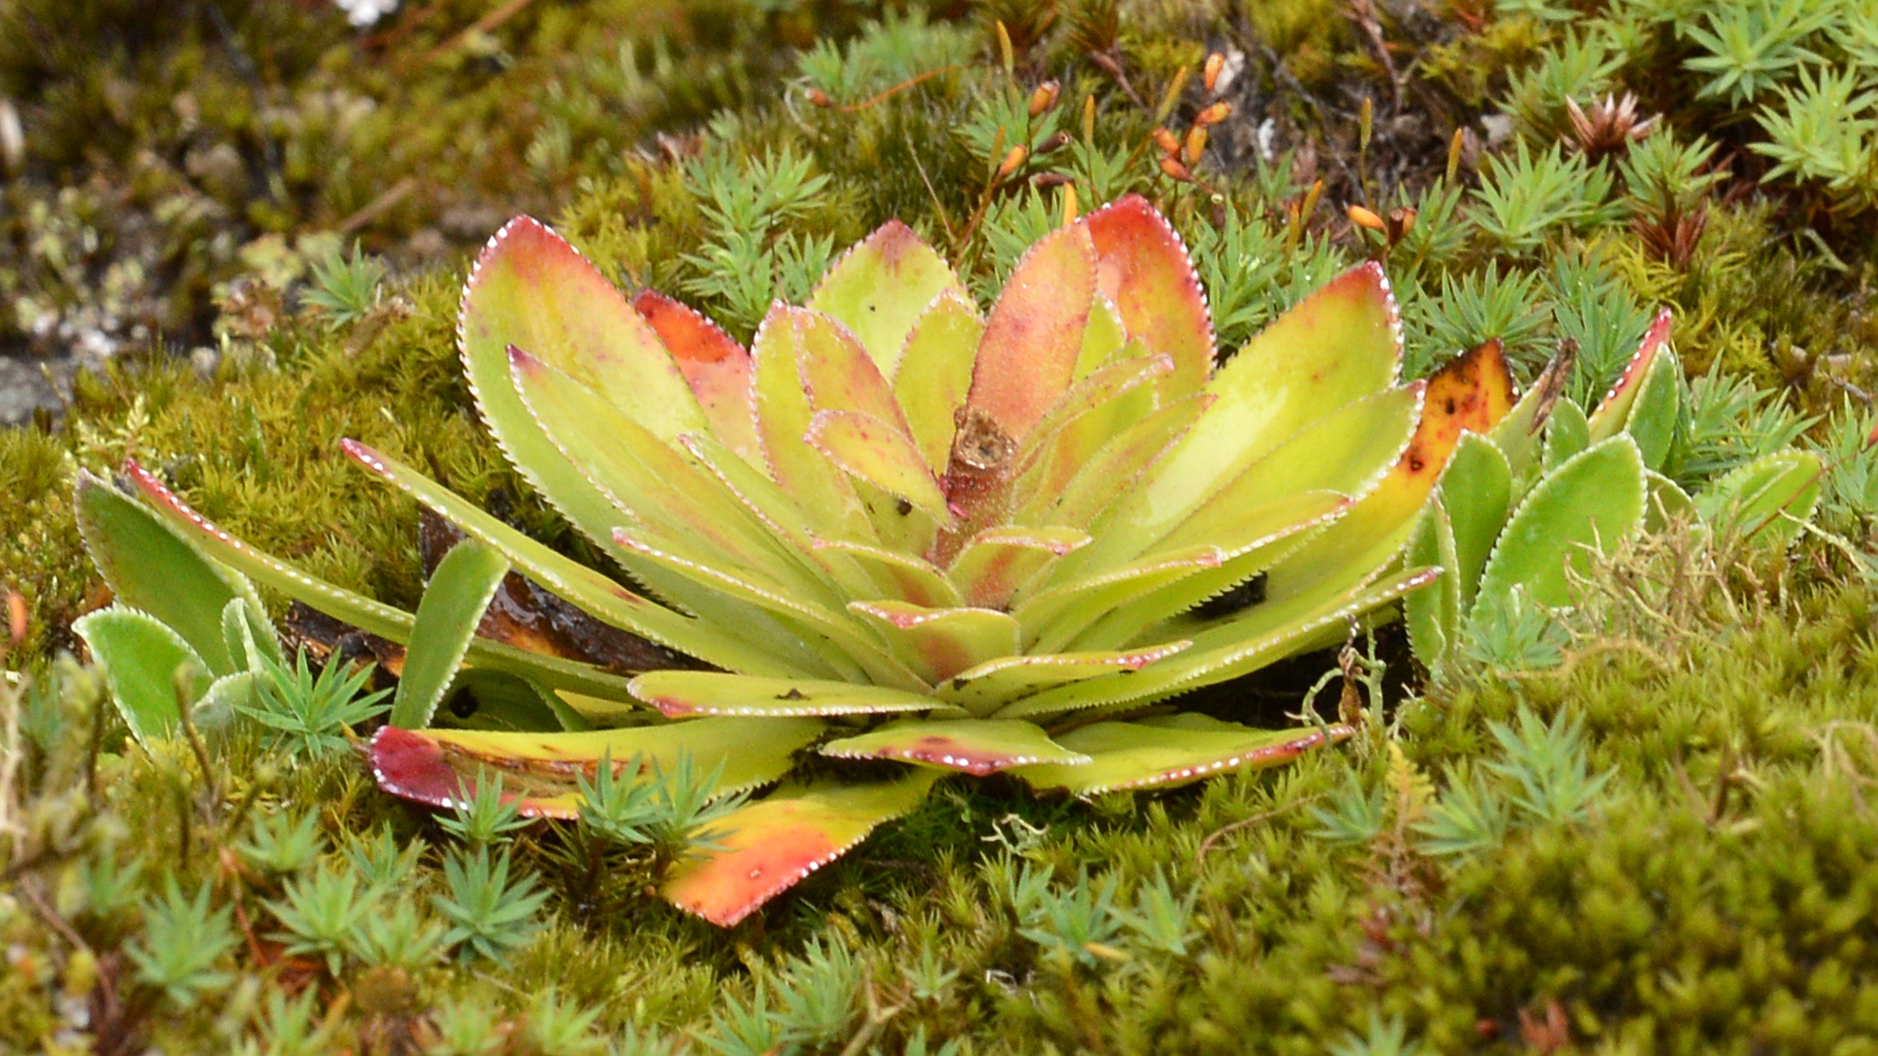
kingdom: Plantae
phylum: Tracheophyta
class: Magnoliopsida
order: Saxifragales
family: Saxifragaceae
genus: Saxifraga
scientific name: Saxifraga cotyledon
